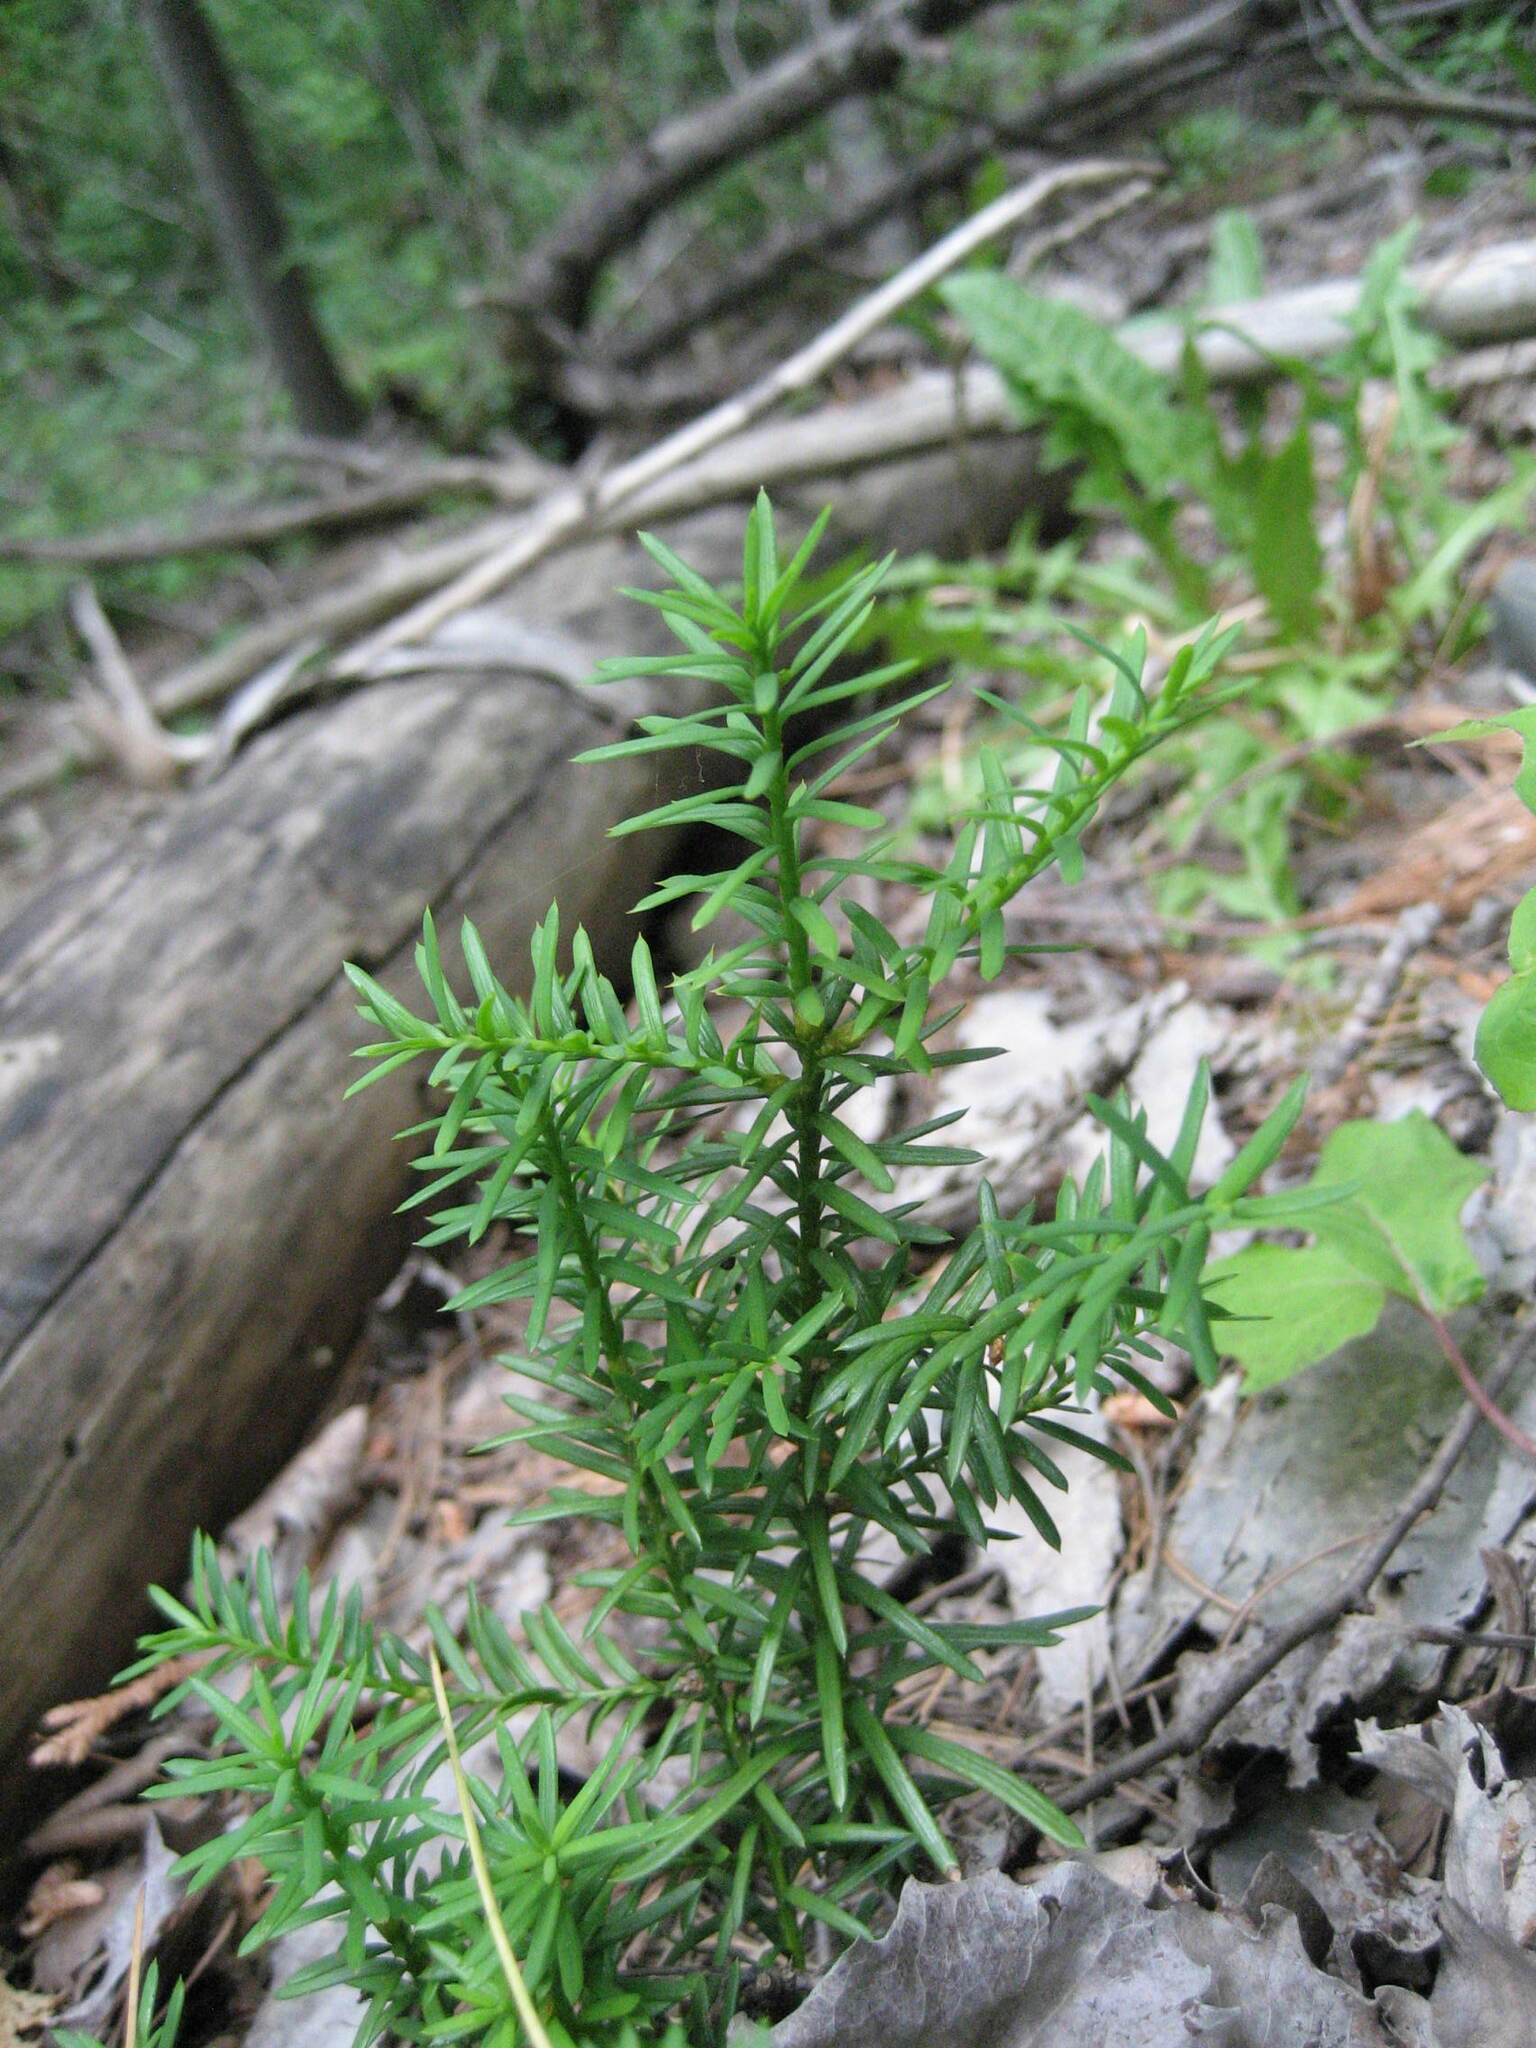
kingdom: Plantae
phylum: Tracheophyta
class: Pinopsida
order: Pinales
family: Taxaceae
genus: Taxus
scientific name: Taxus canadensis
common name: American yew
